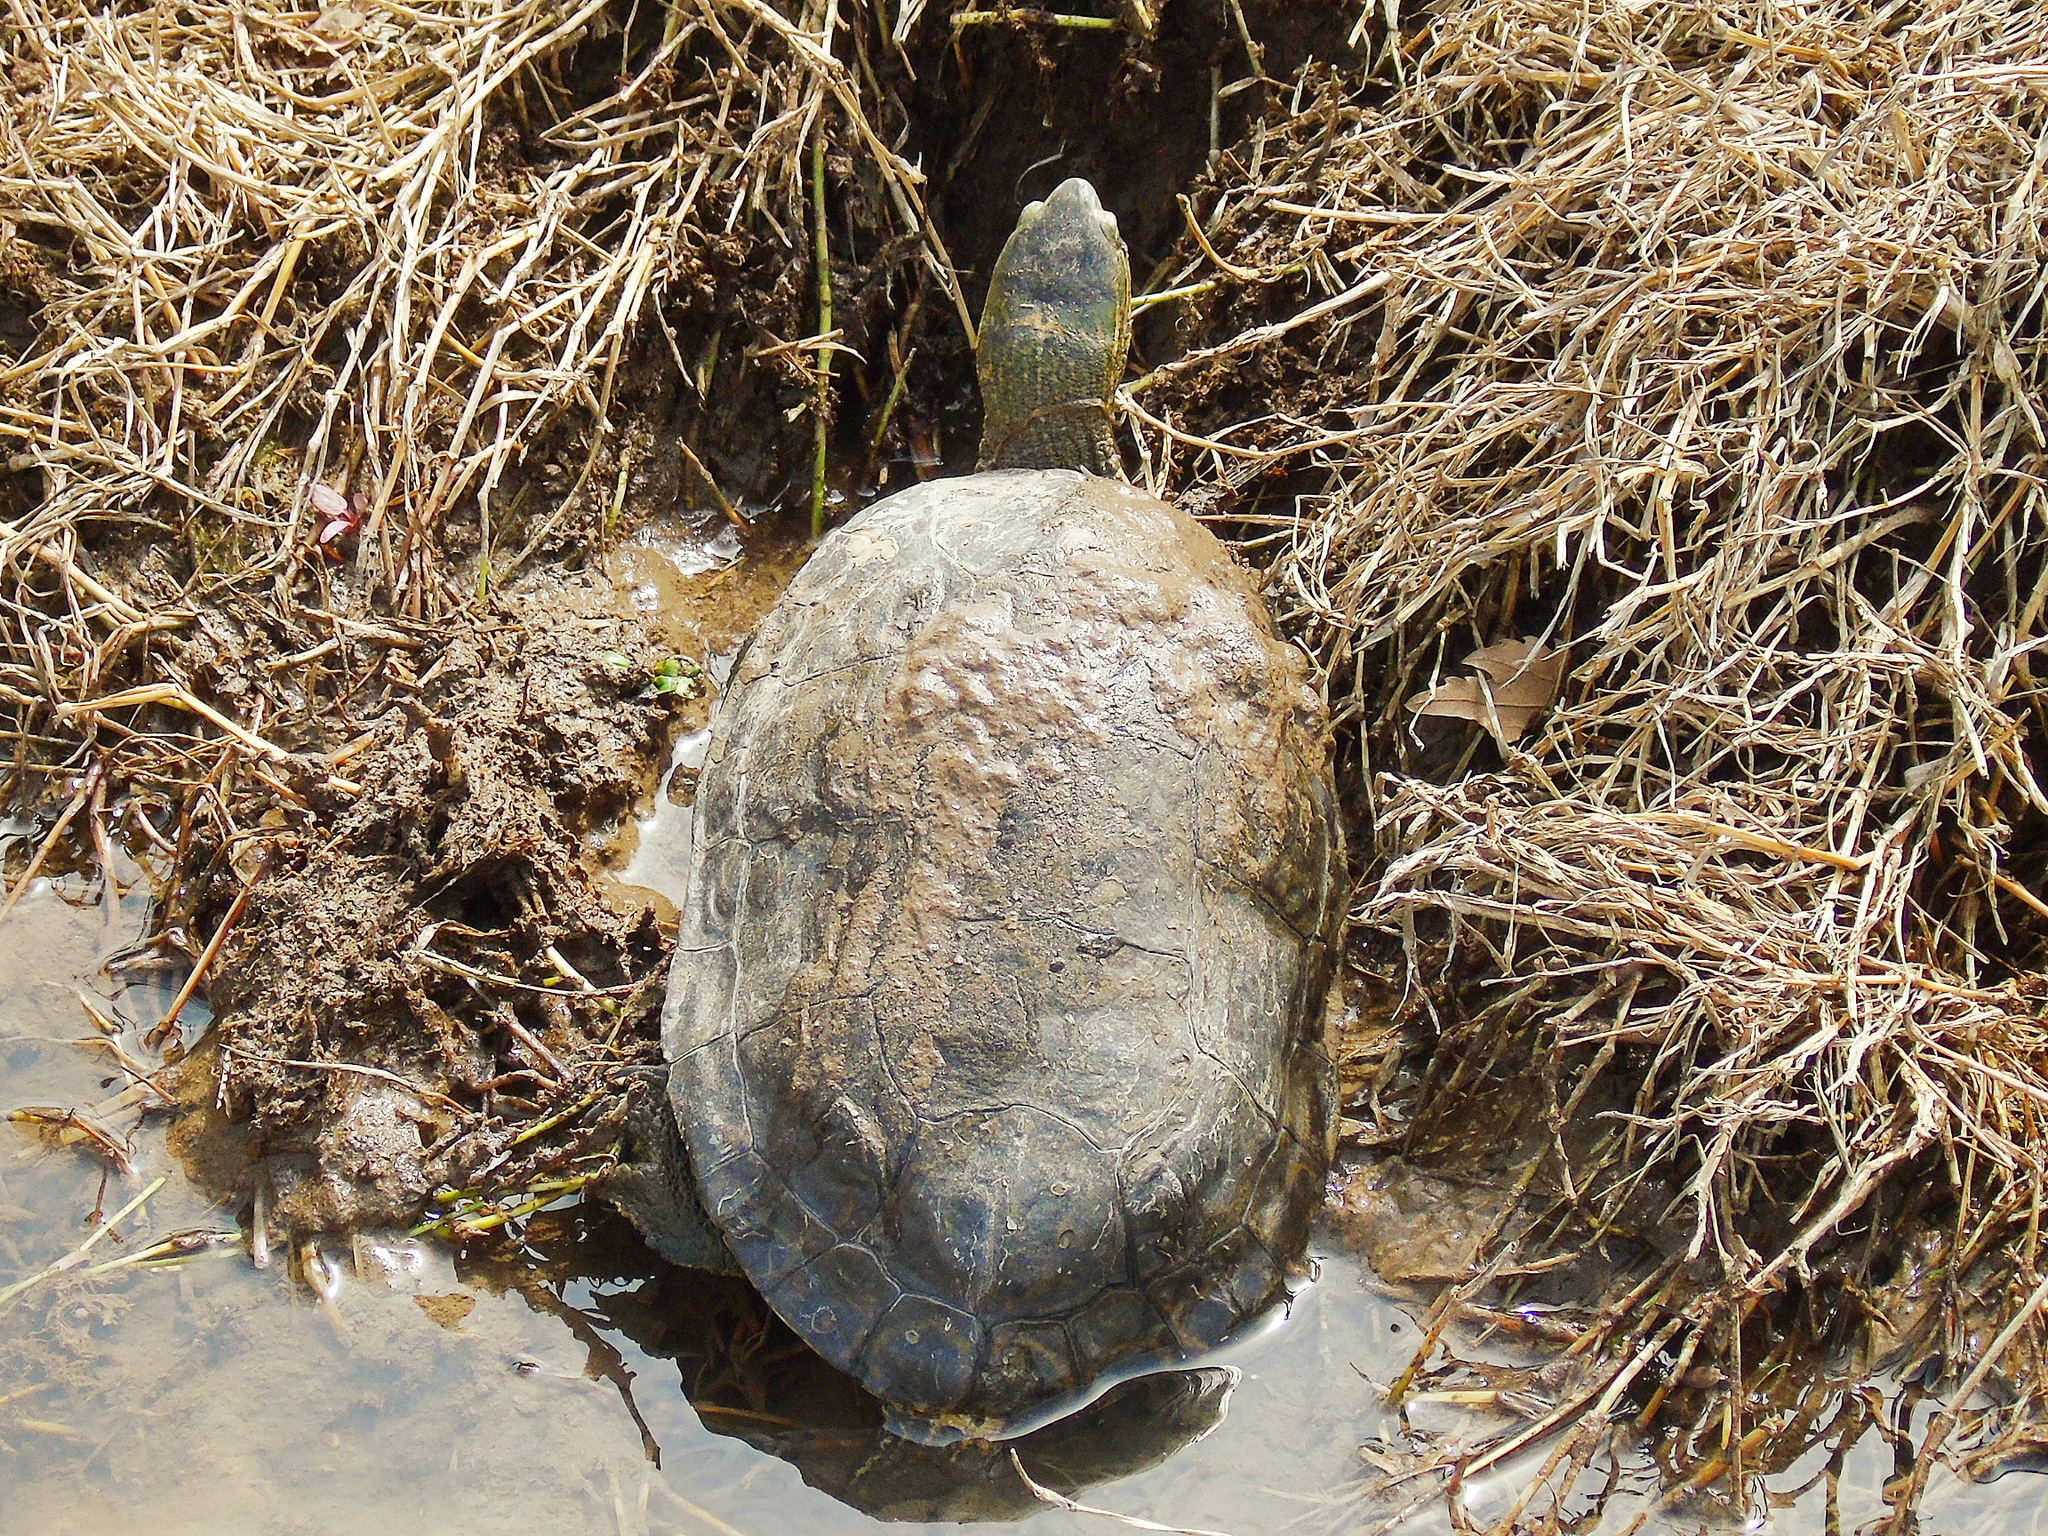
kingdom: Animalia
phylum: Chordata
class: Testudines
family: Geoemydidae
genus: Mauremys
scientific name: Mauremys caspica
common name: Caspian turtle
